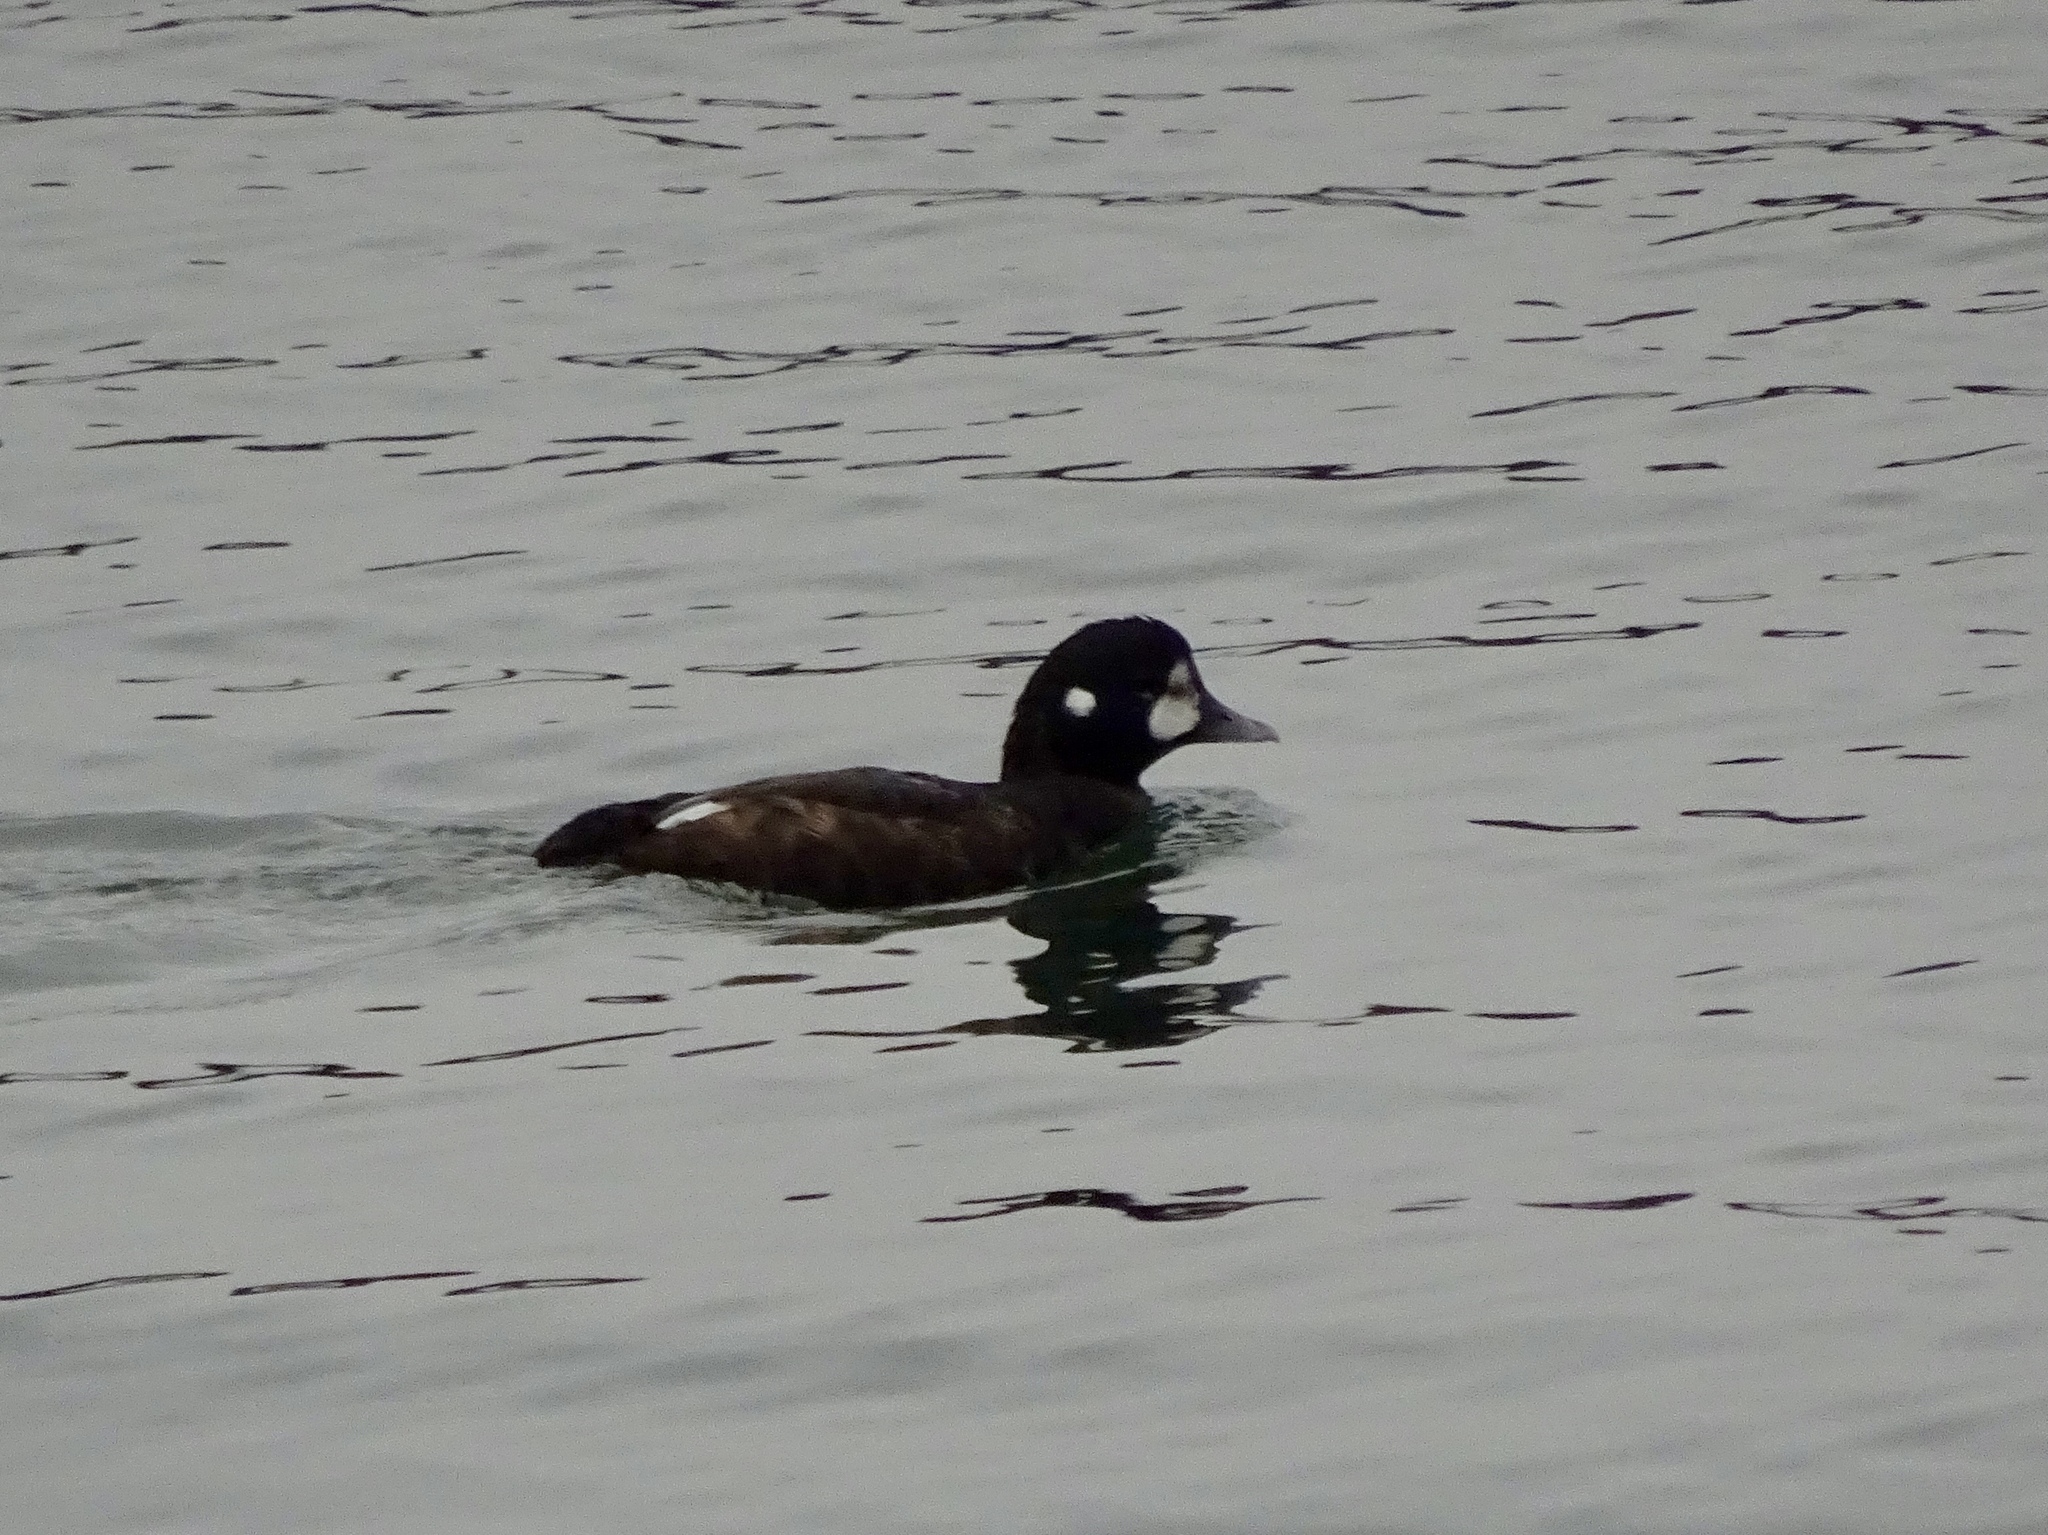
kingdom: Animalia
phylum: Chordata
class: Aves
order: Anseriformes
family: Anatidae
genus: Histrionicus
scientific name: Histrionicus histrionicus
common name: Harlequin duck
